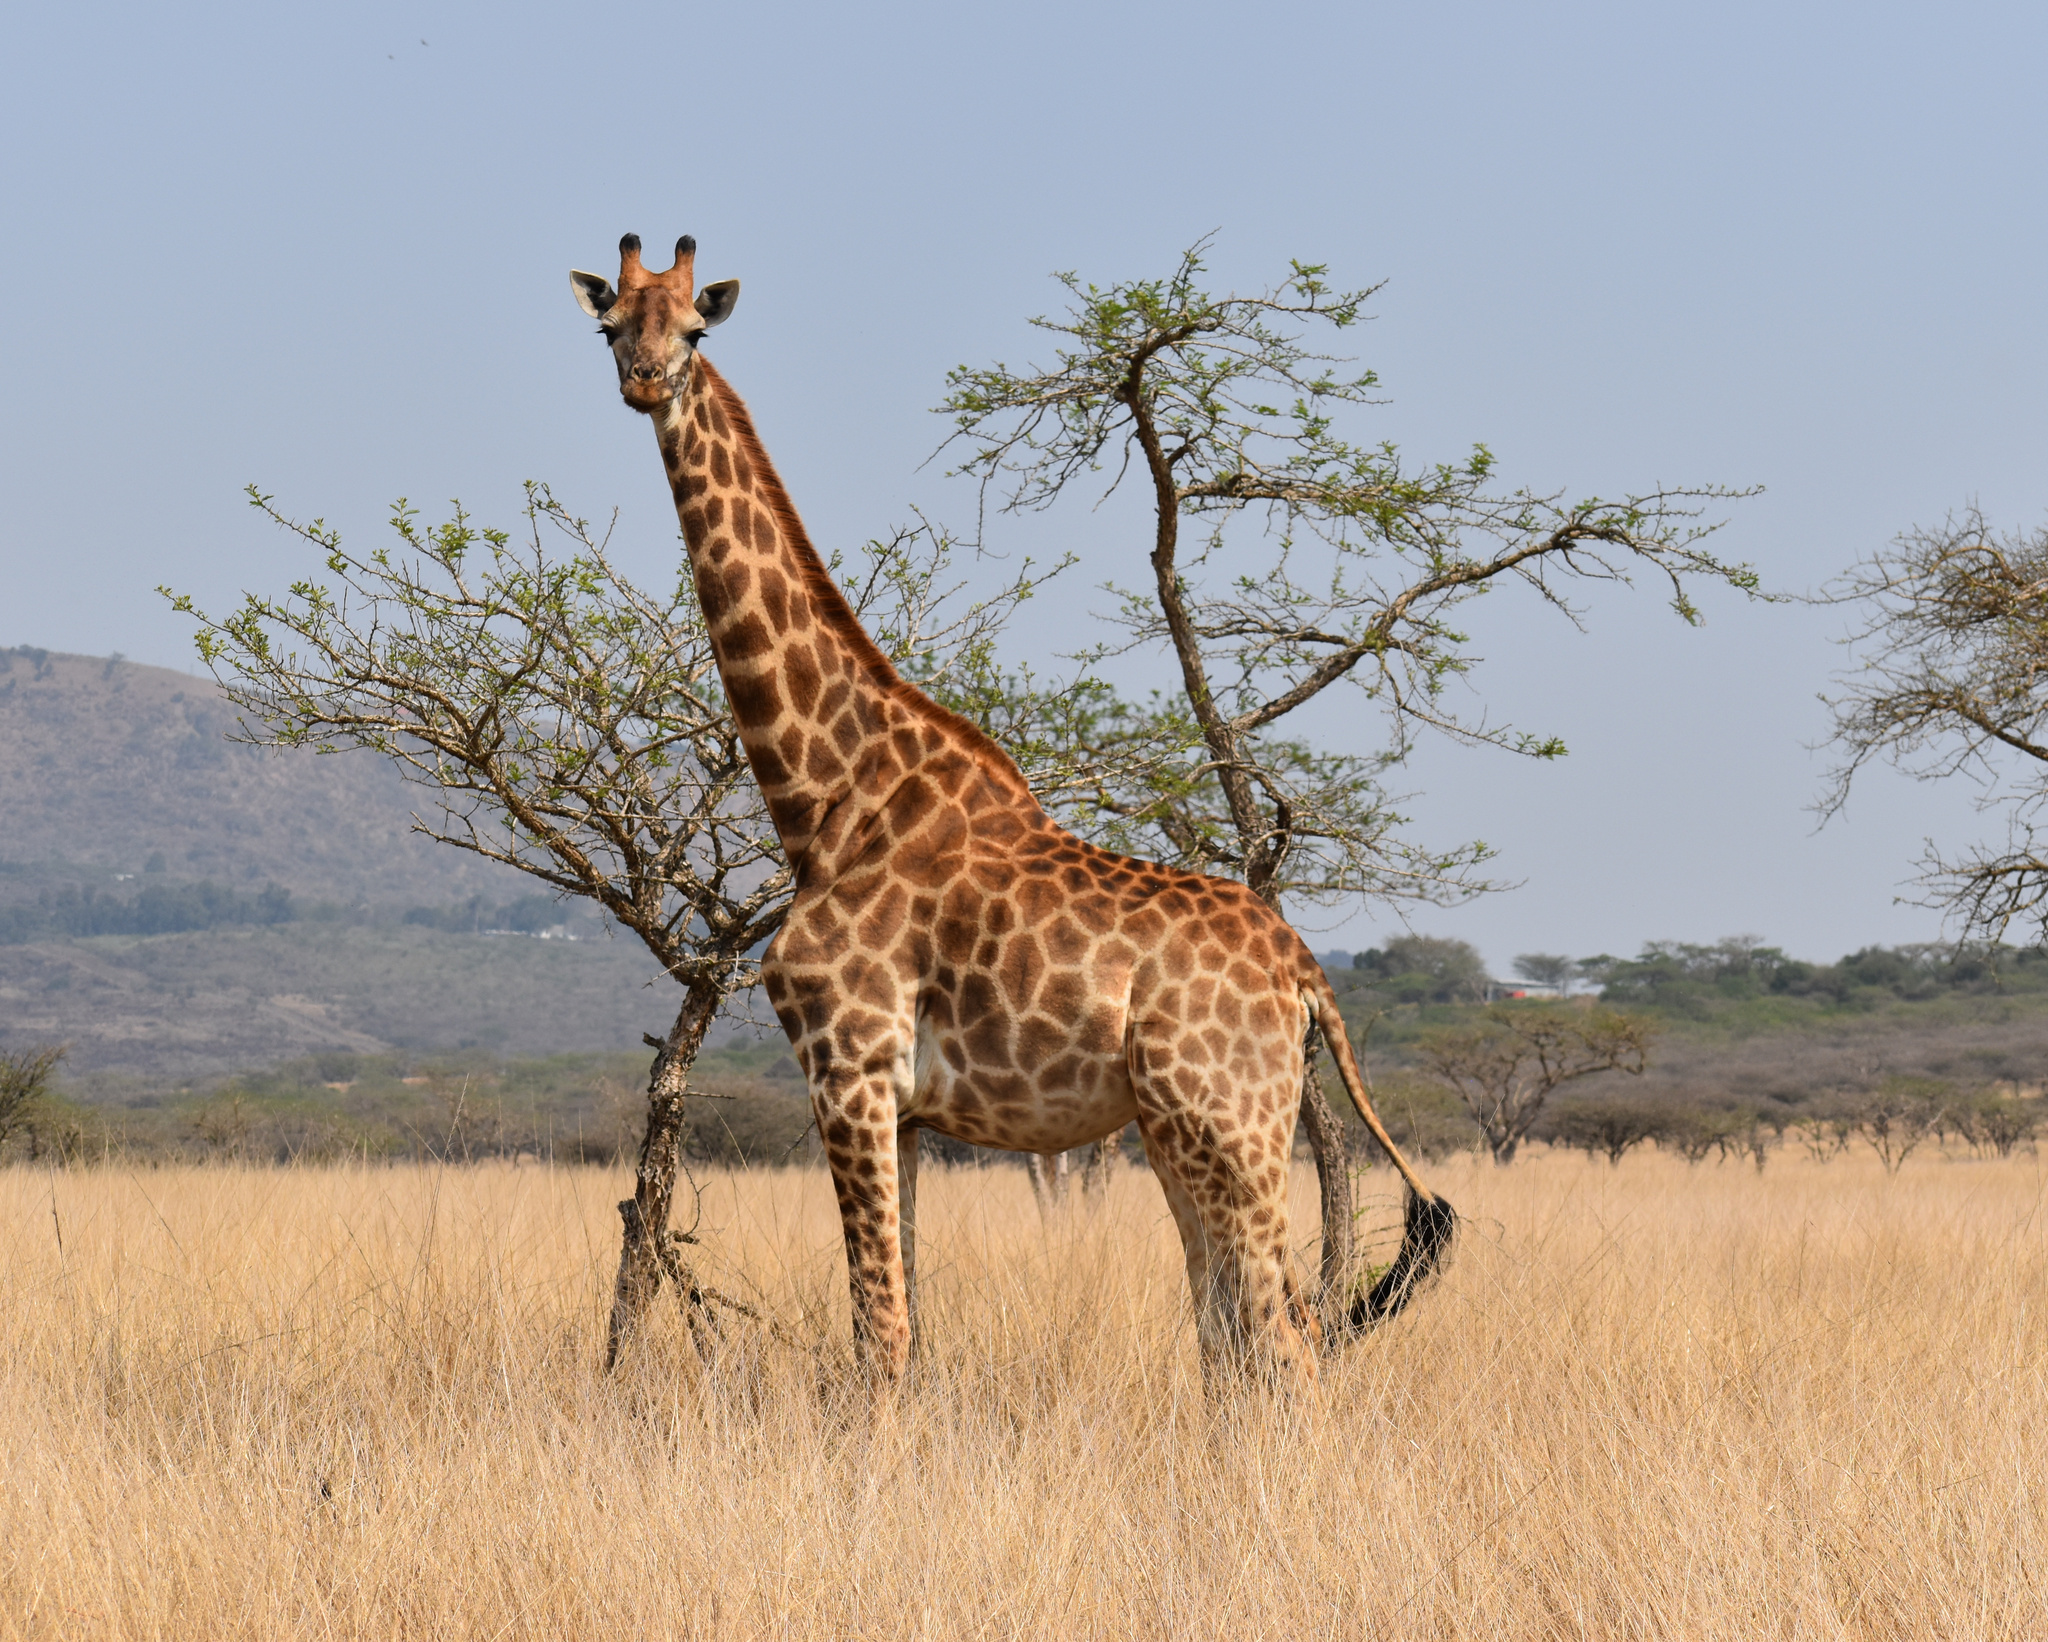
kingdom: Animalia
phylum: Chordata
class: Mammalia
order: Artiodactyla
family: Giraffidae
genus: Giraffa
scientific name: Giraffa giraffa
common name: Southern giraffe
